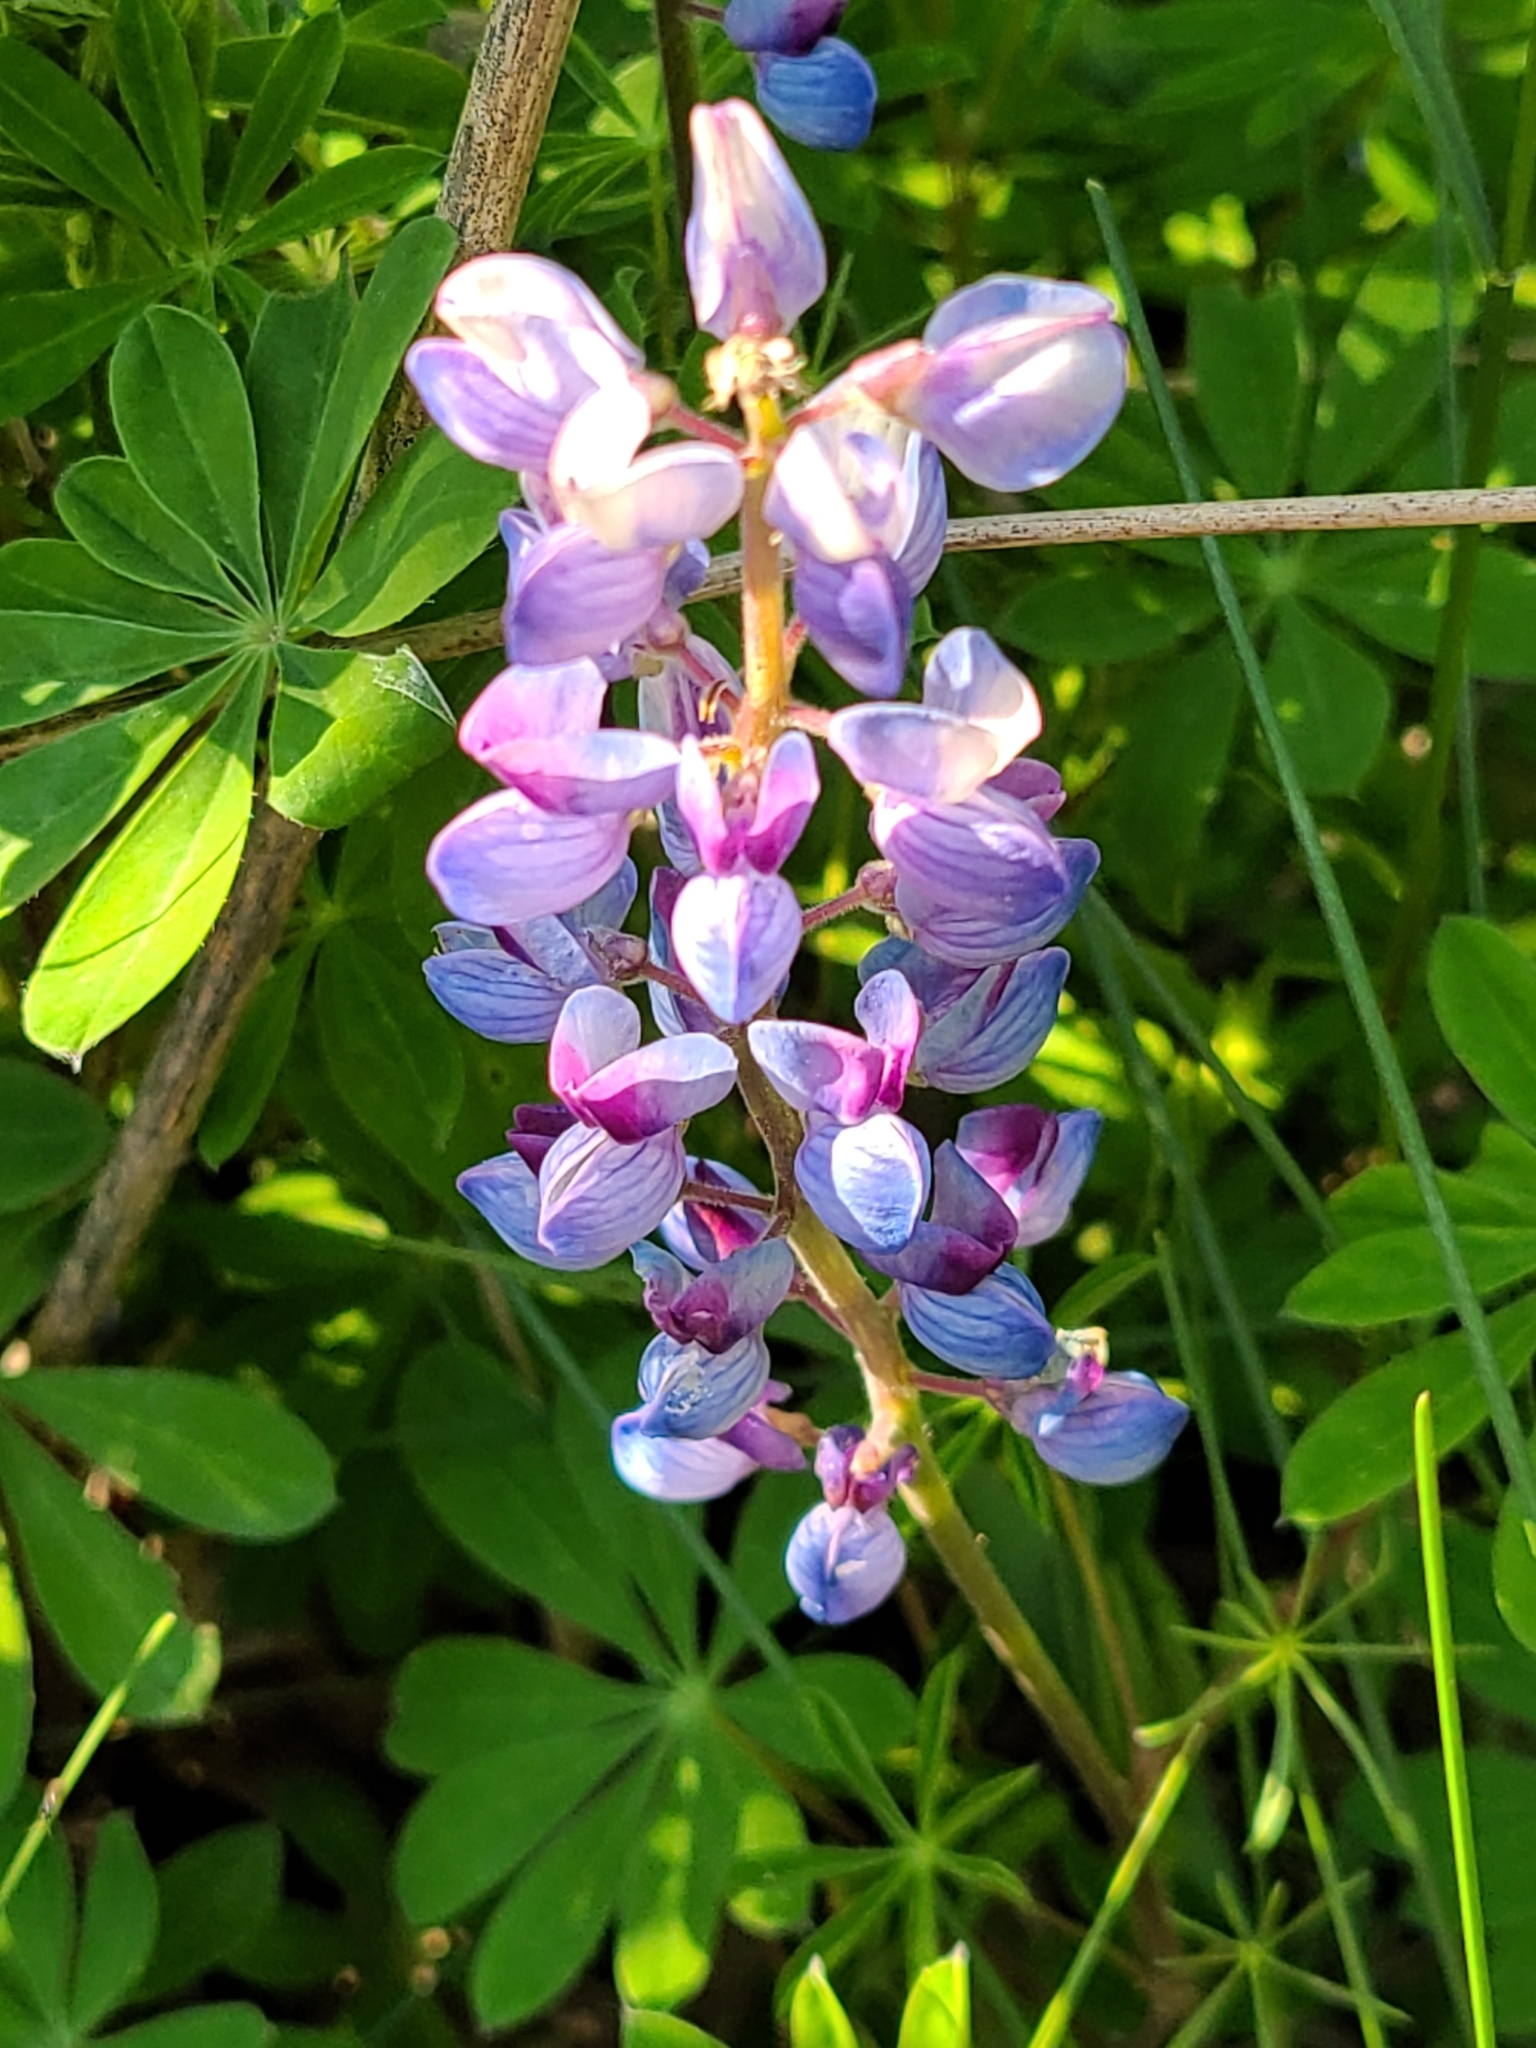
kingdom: Plantae
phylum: Tracheophyta
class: Magnoliopsida
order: Fabales
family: Fabaceae
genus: Lupinus
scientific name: Lupinus perennis
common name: Sundial lupine
